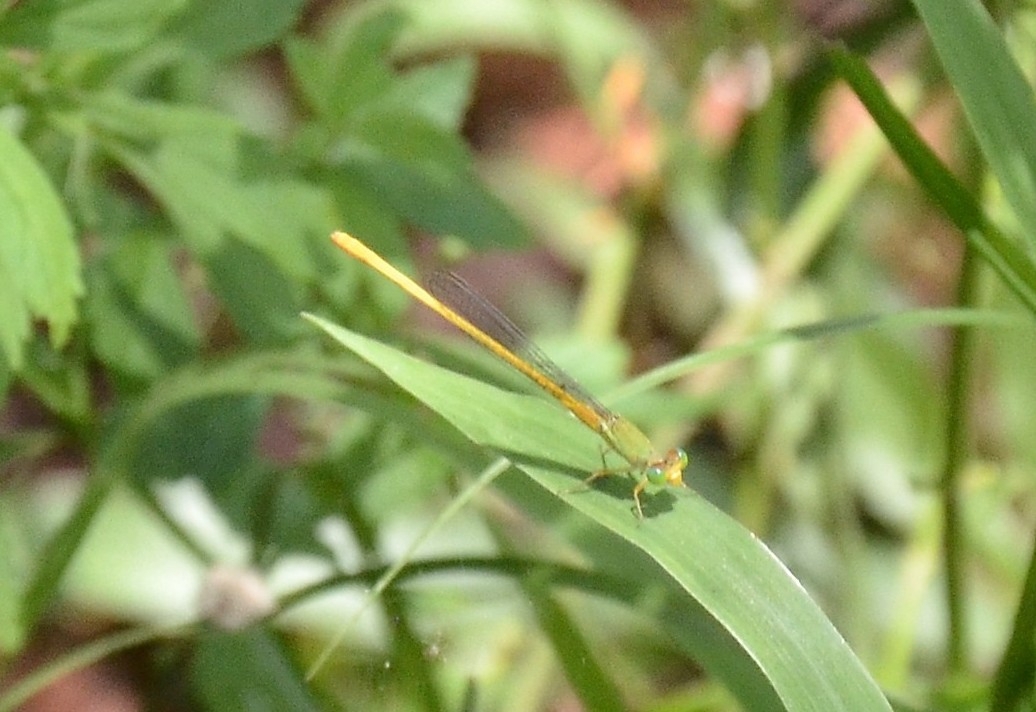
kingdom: Animalia
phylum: Arthropoda
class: Insecta
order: Odonata
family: Coenagrionidae
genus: Ceriagrion
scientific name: Ceriagrion coromandelianum
